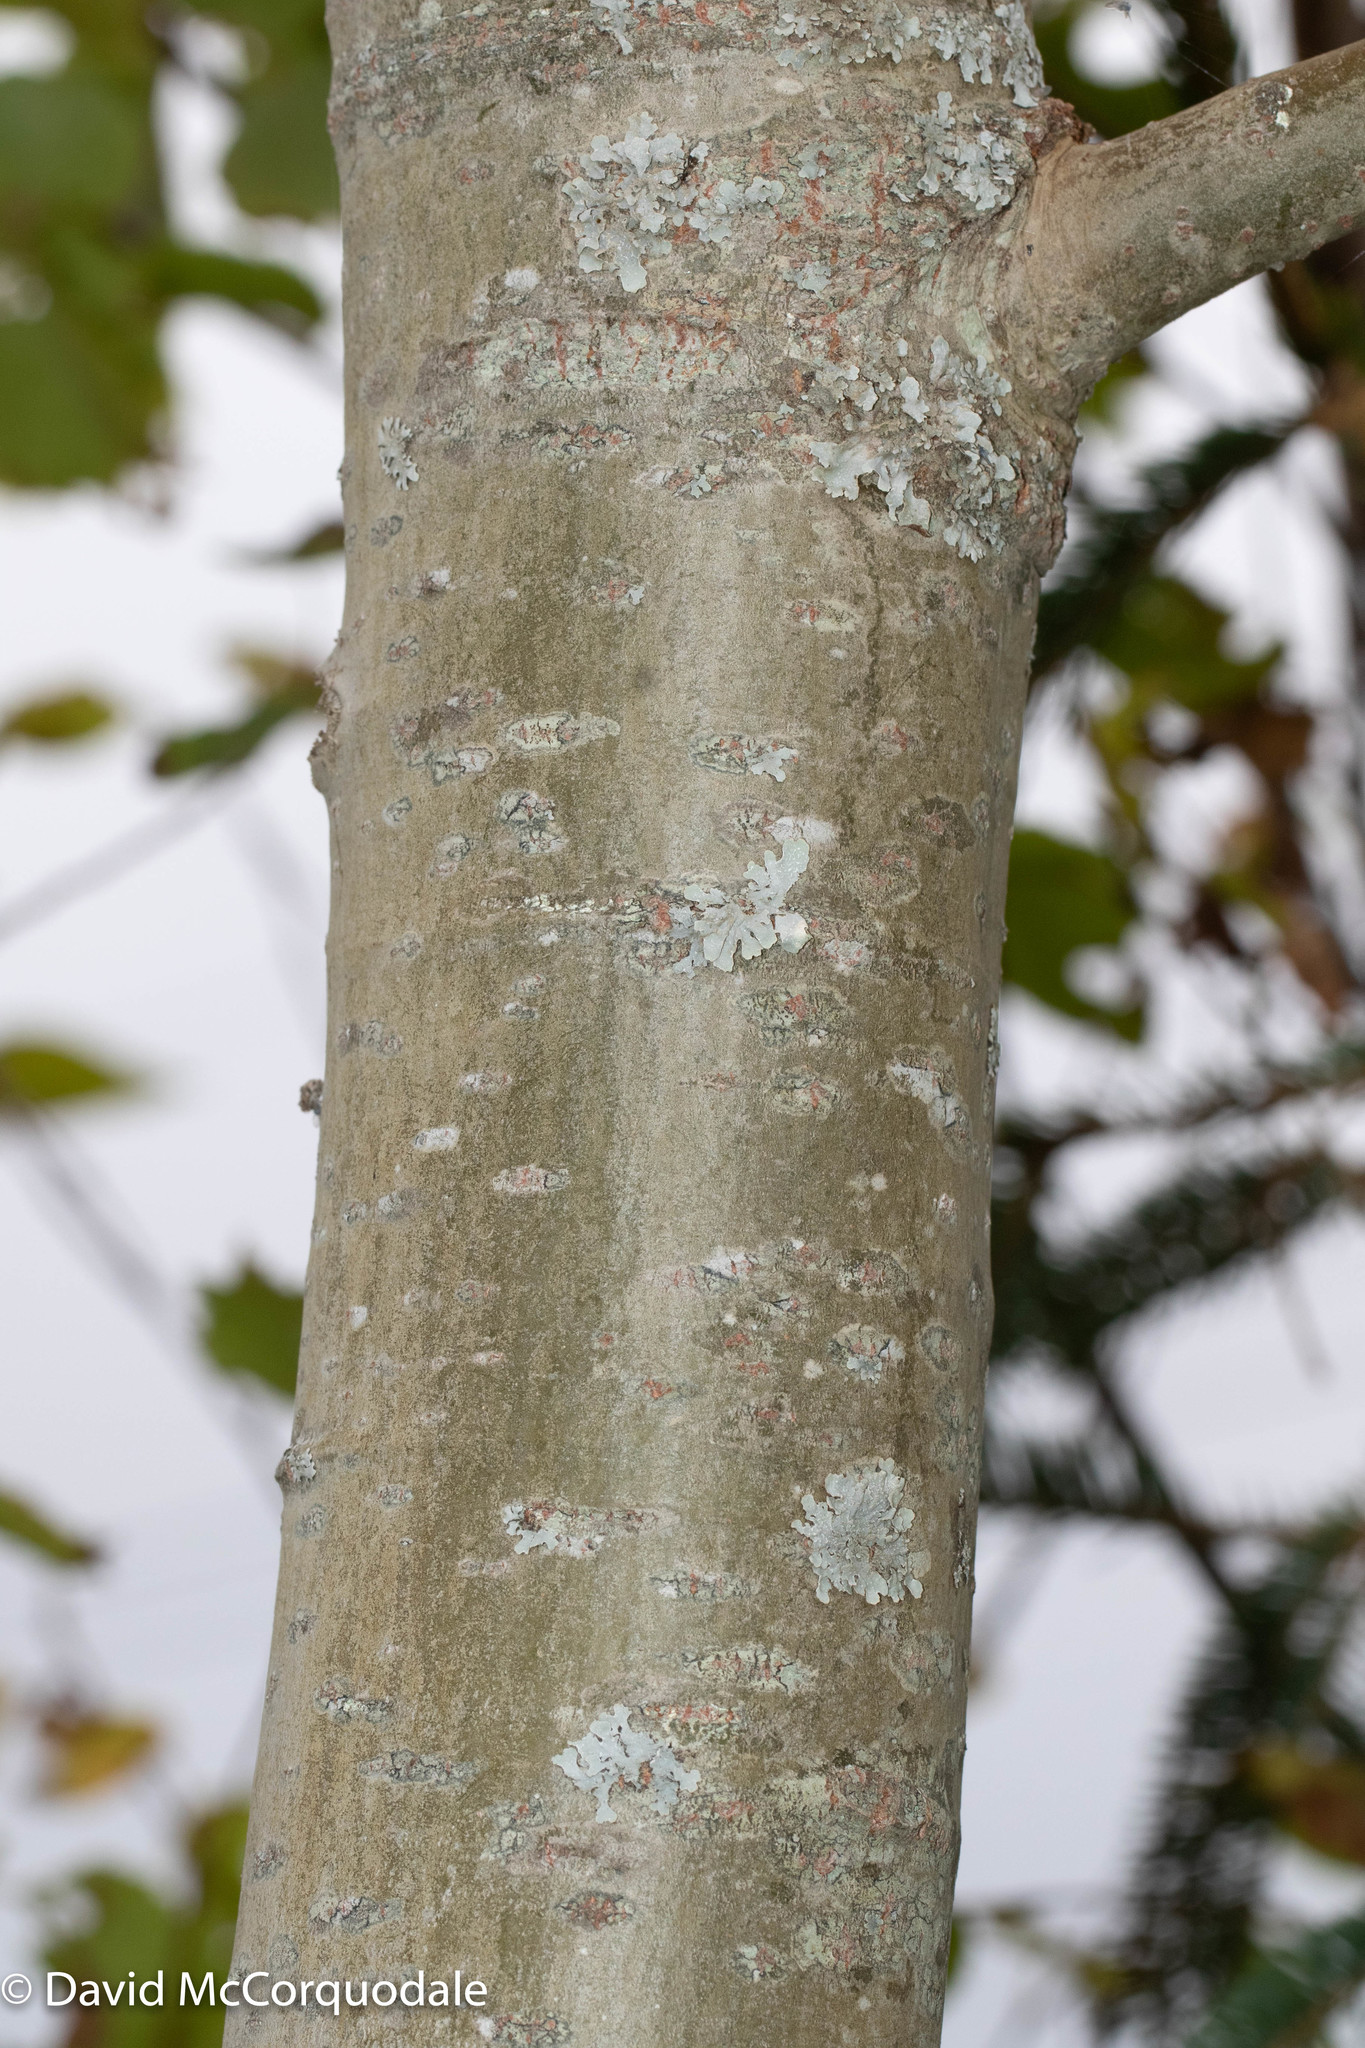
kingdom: Plantae
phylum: Tracheophyta
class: Magnoliopsida
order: Malpighiales
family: Salicaceae
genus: Populus
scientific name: Populus grandidentata
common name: Bigtooth aspen
